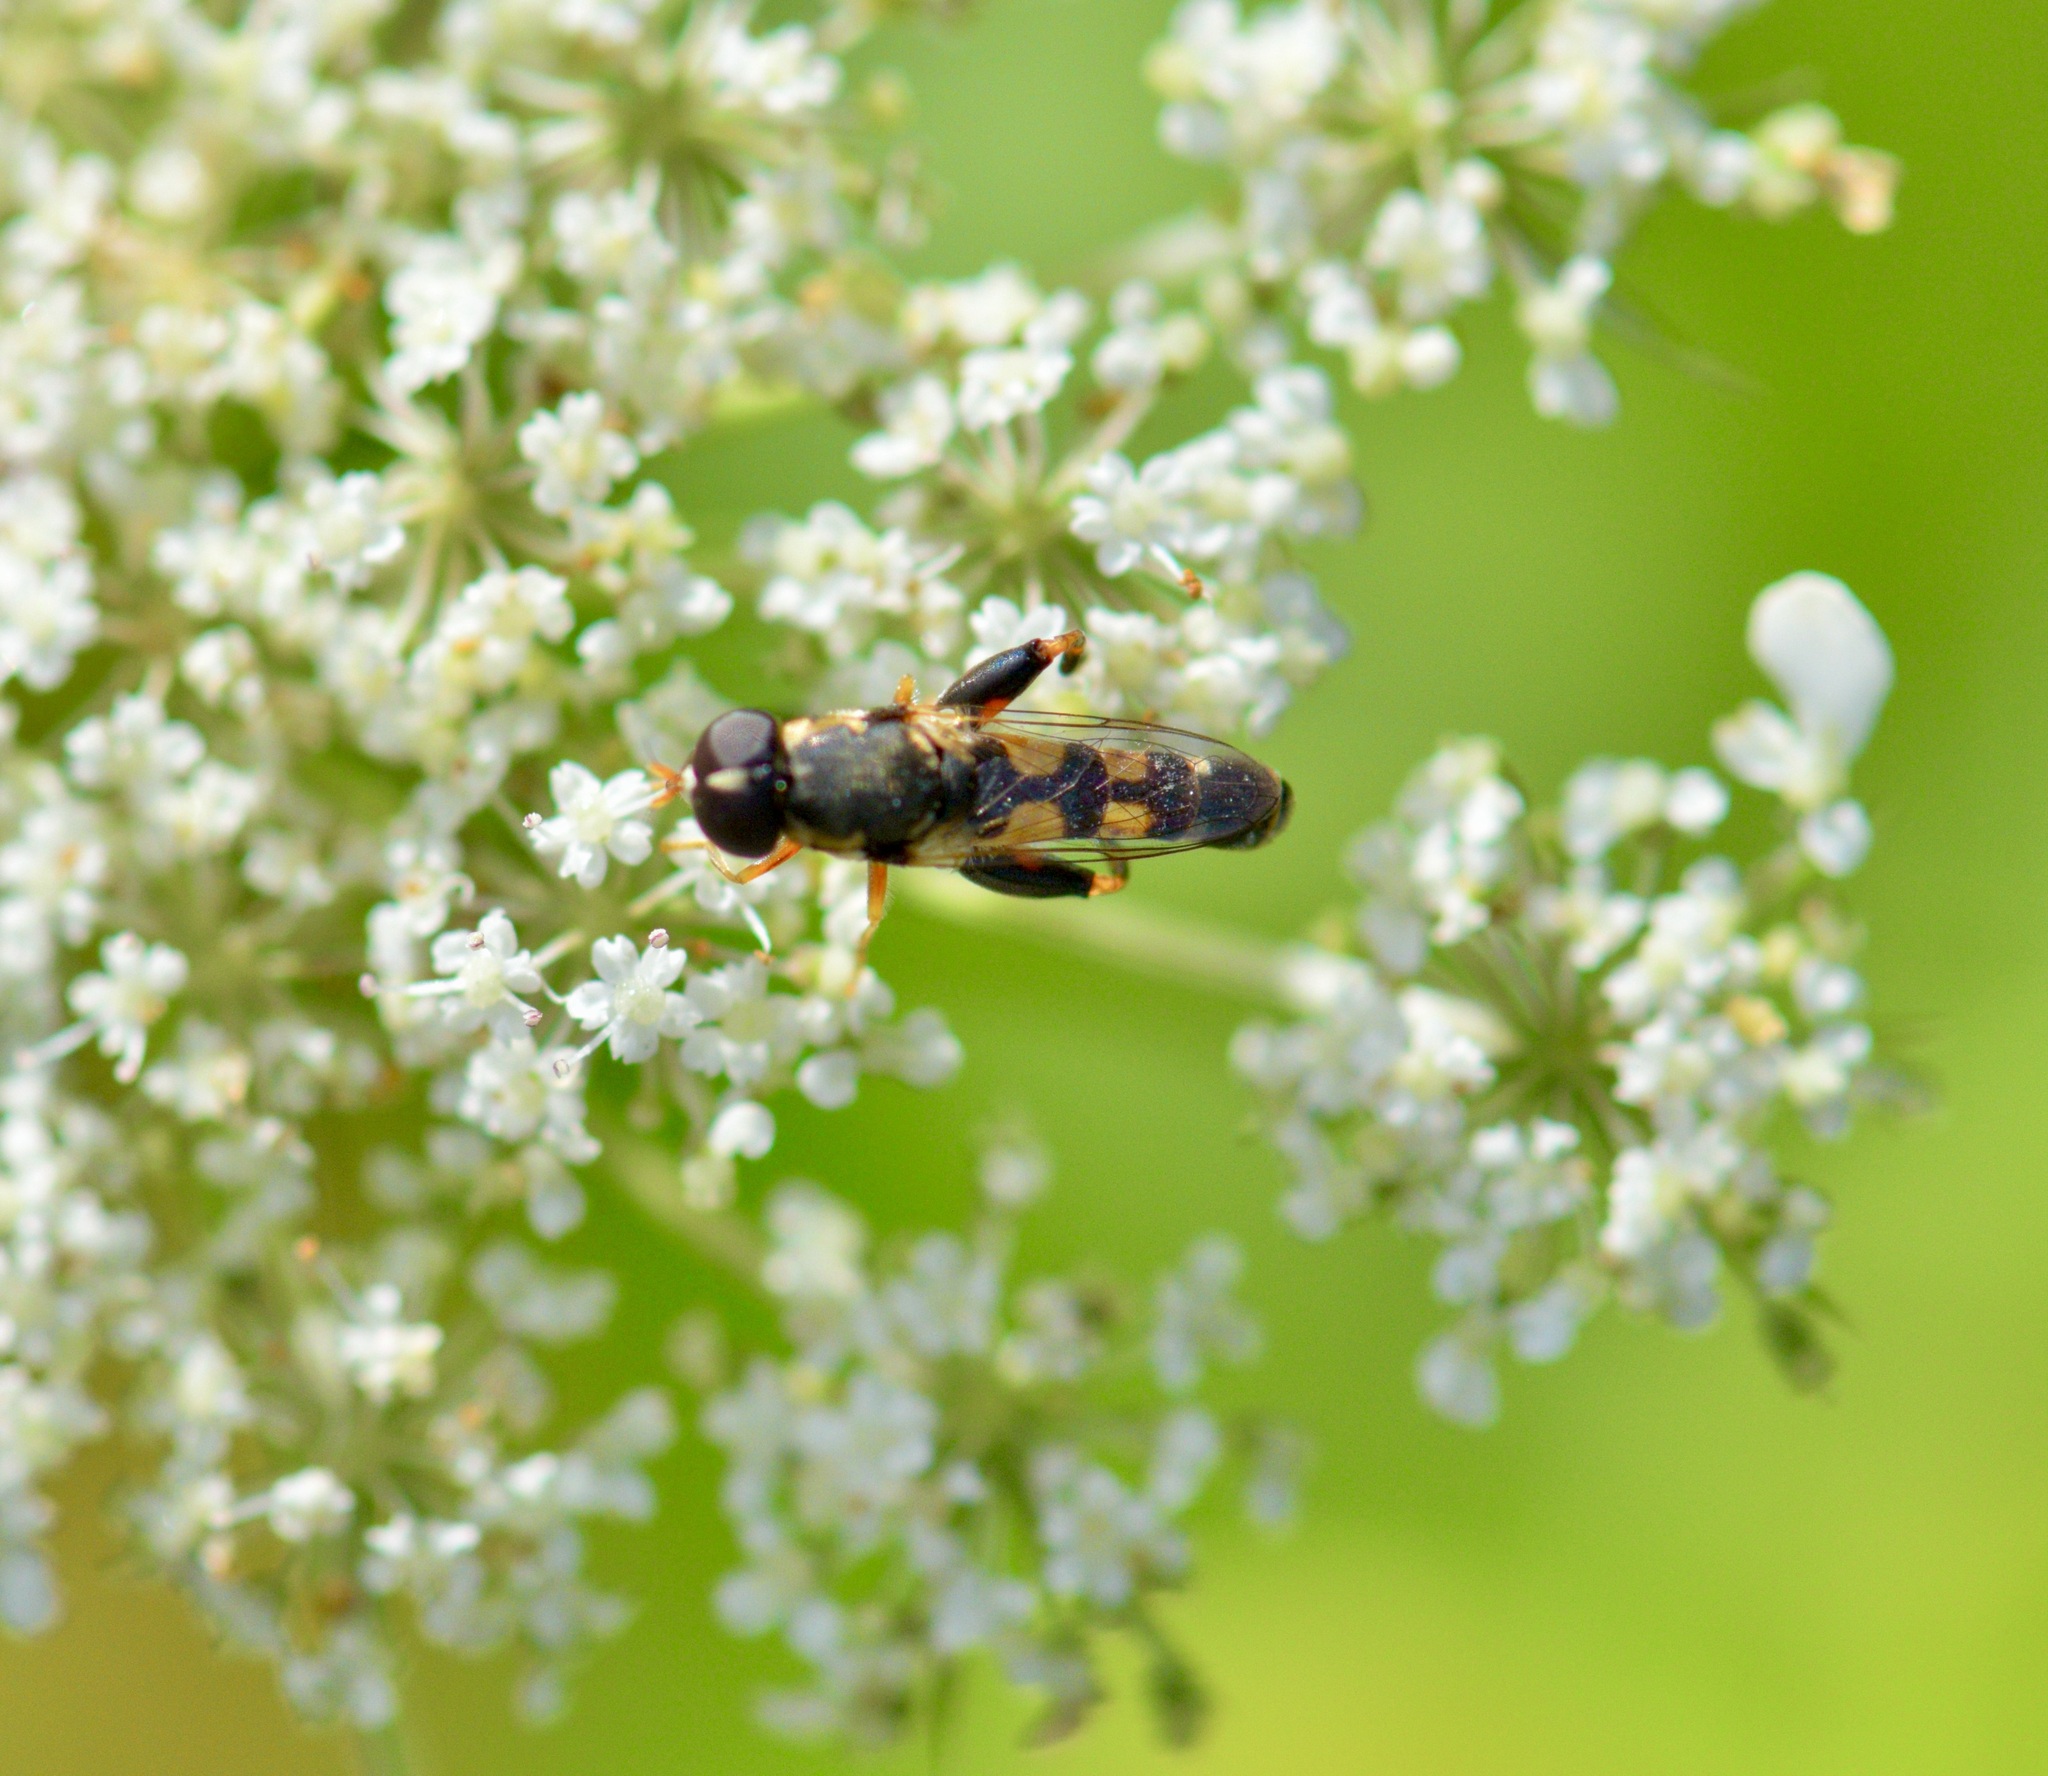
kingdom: Animalia
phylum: Arthropoda
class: Insecta
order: Diptera
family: Syrphidae
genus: Syritta
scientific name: Syritta pipiens
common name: Hover fly
